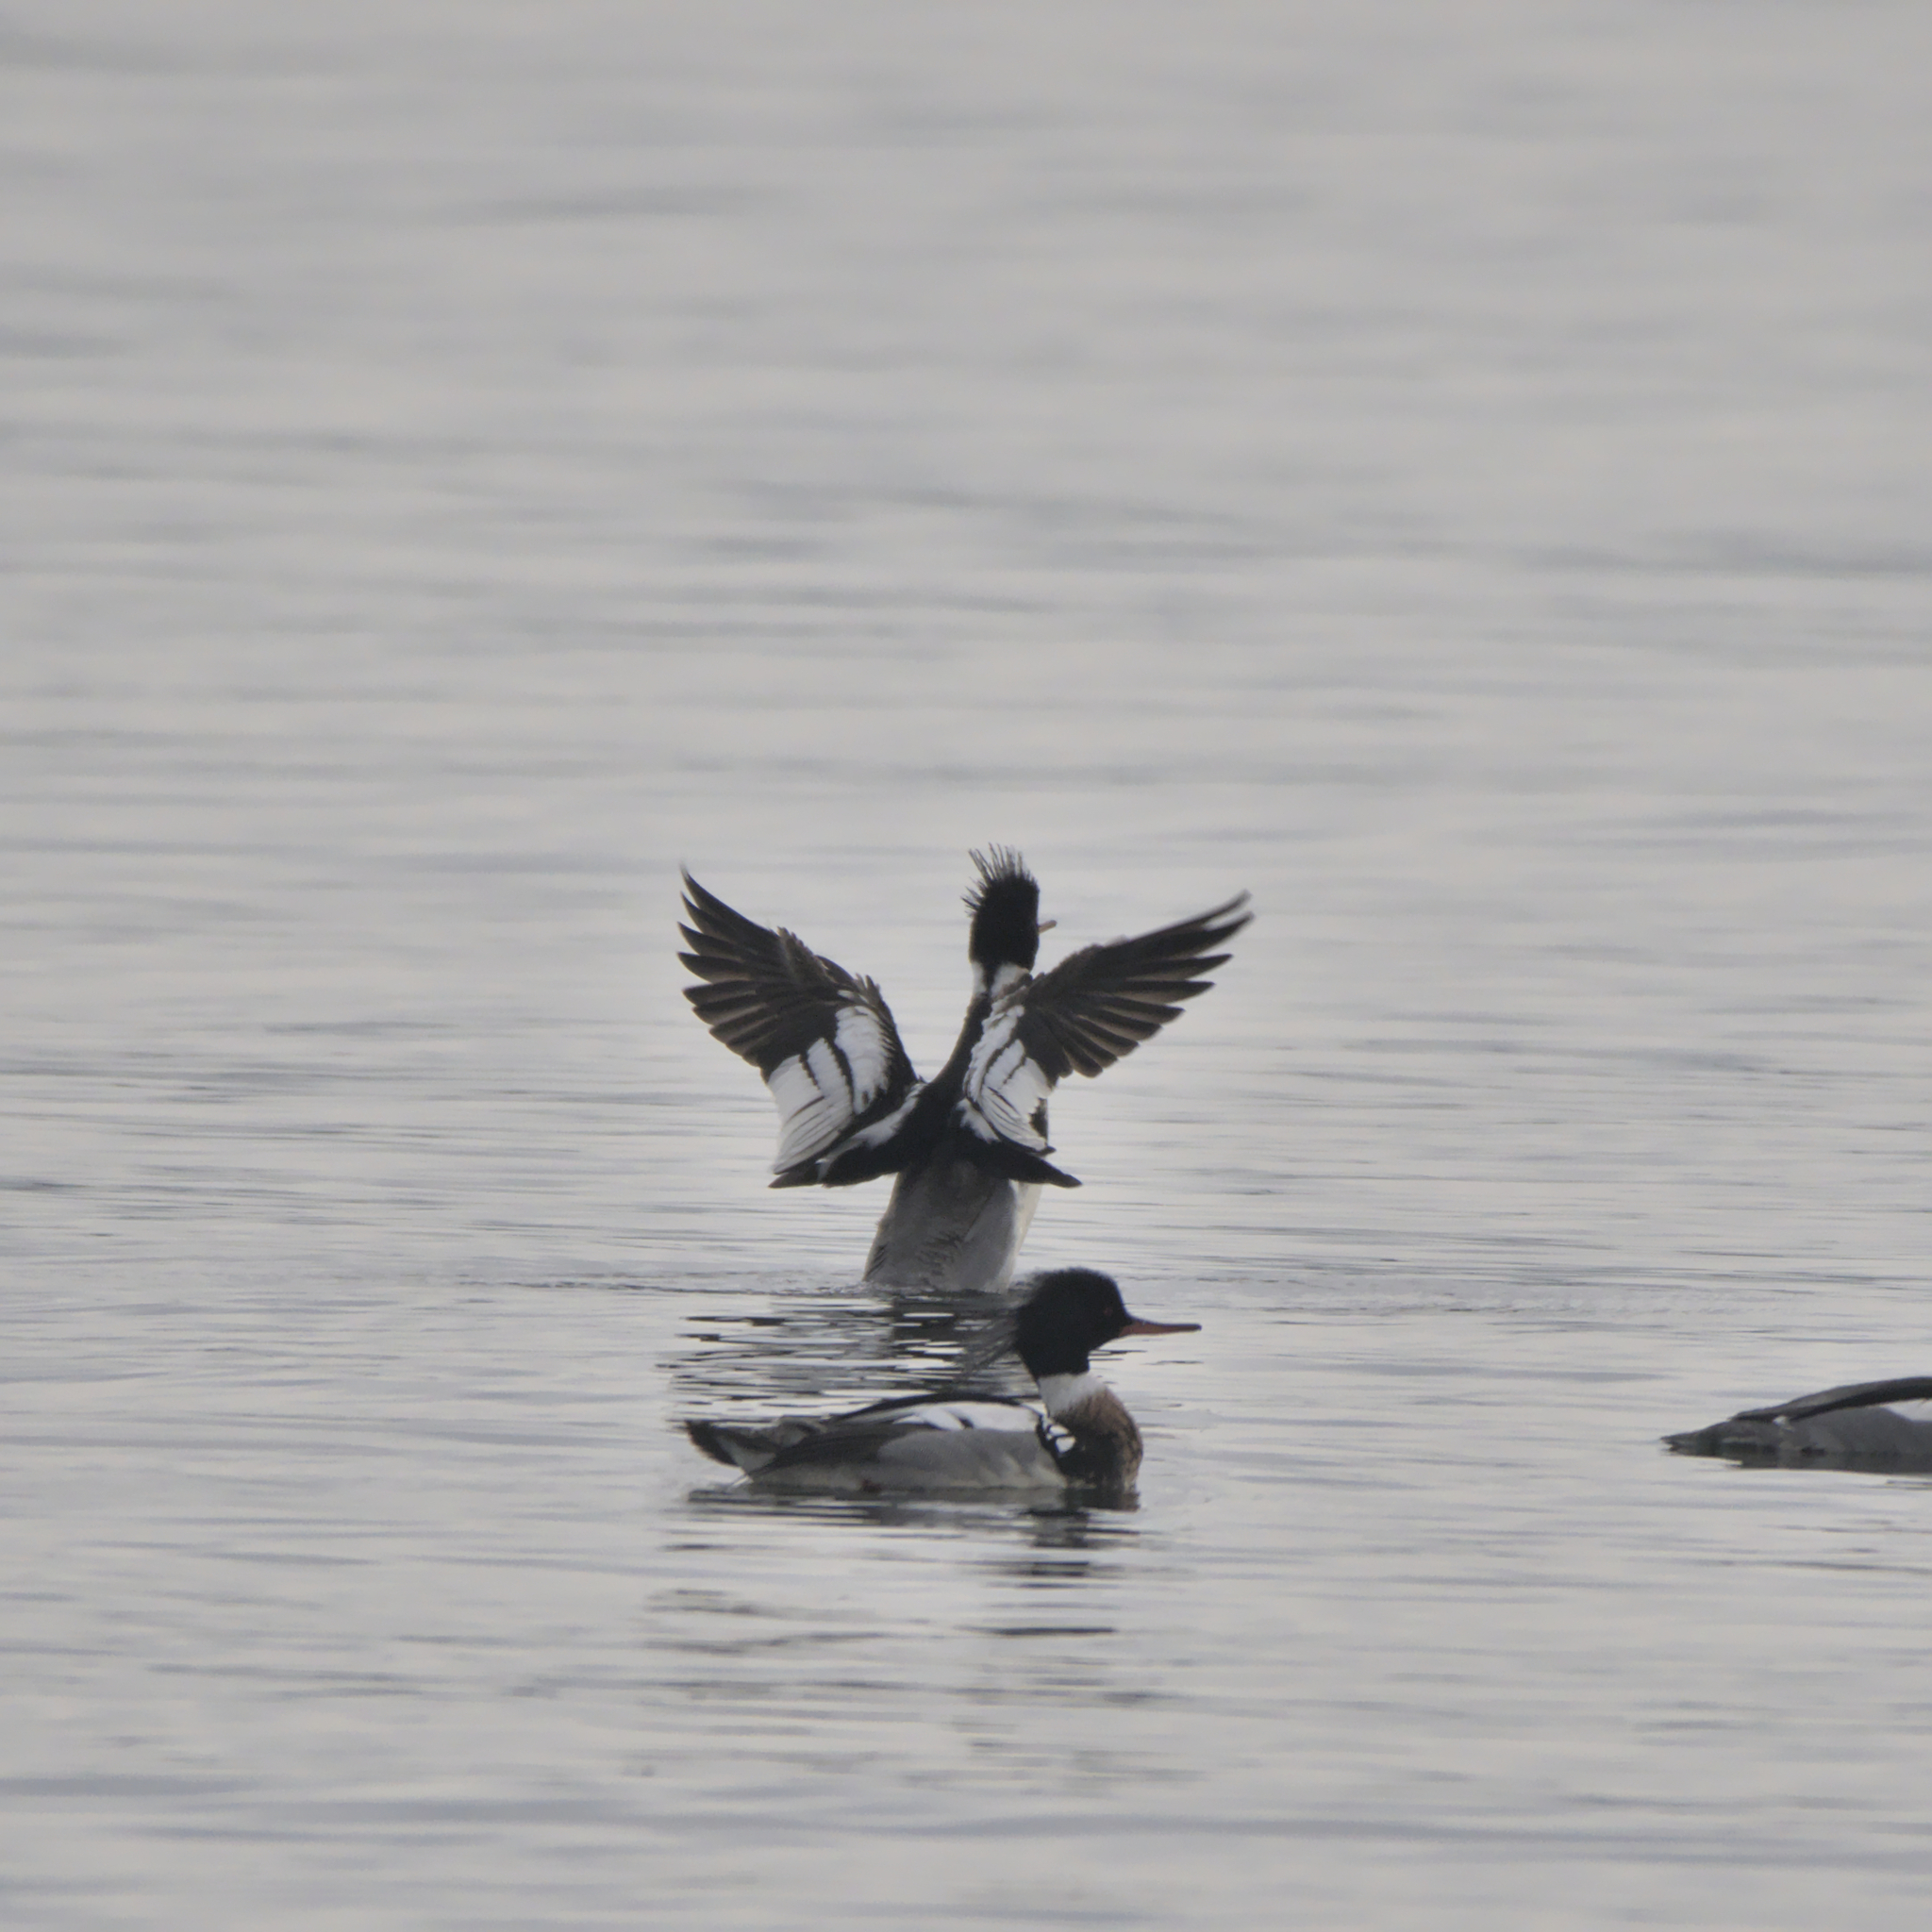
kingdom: Animalia
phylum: Chordata
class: Aves
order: Anseriformes
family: Anatidae
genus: Mergus
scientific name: Mergus serrator
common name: Red-breasted merganser
